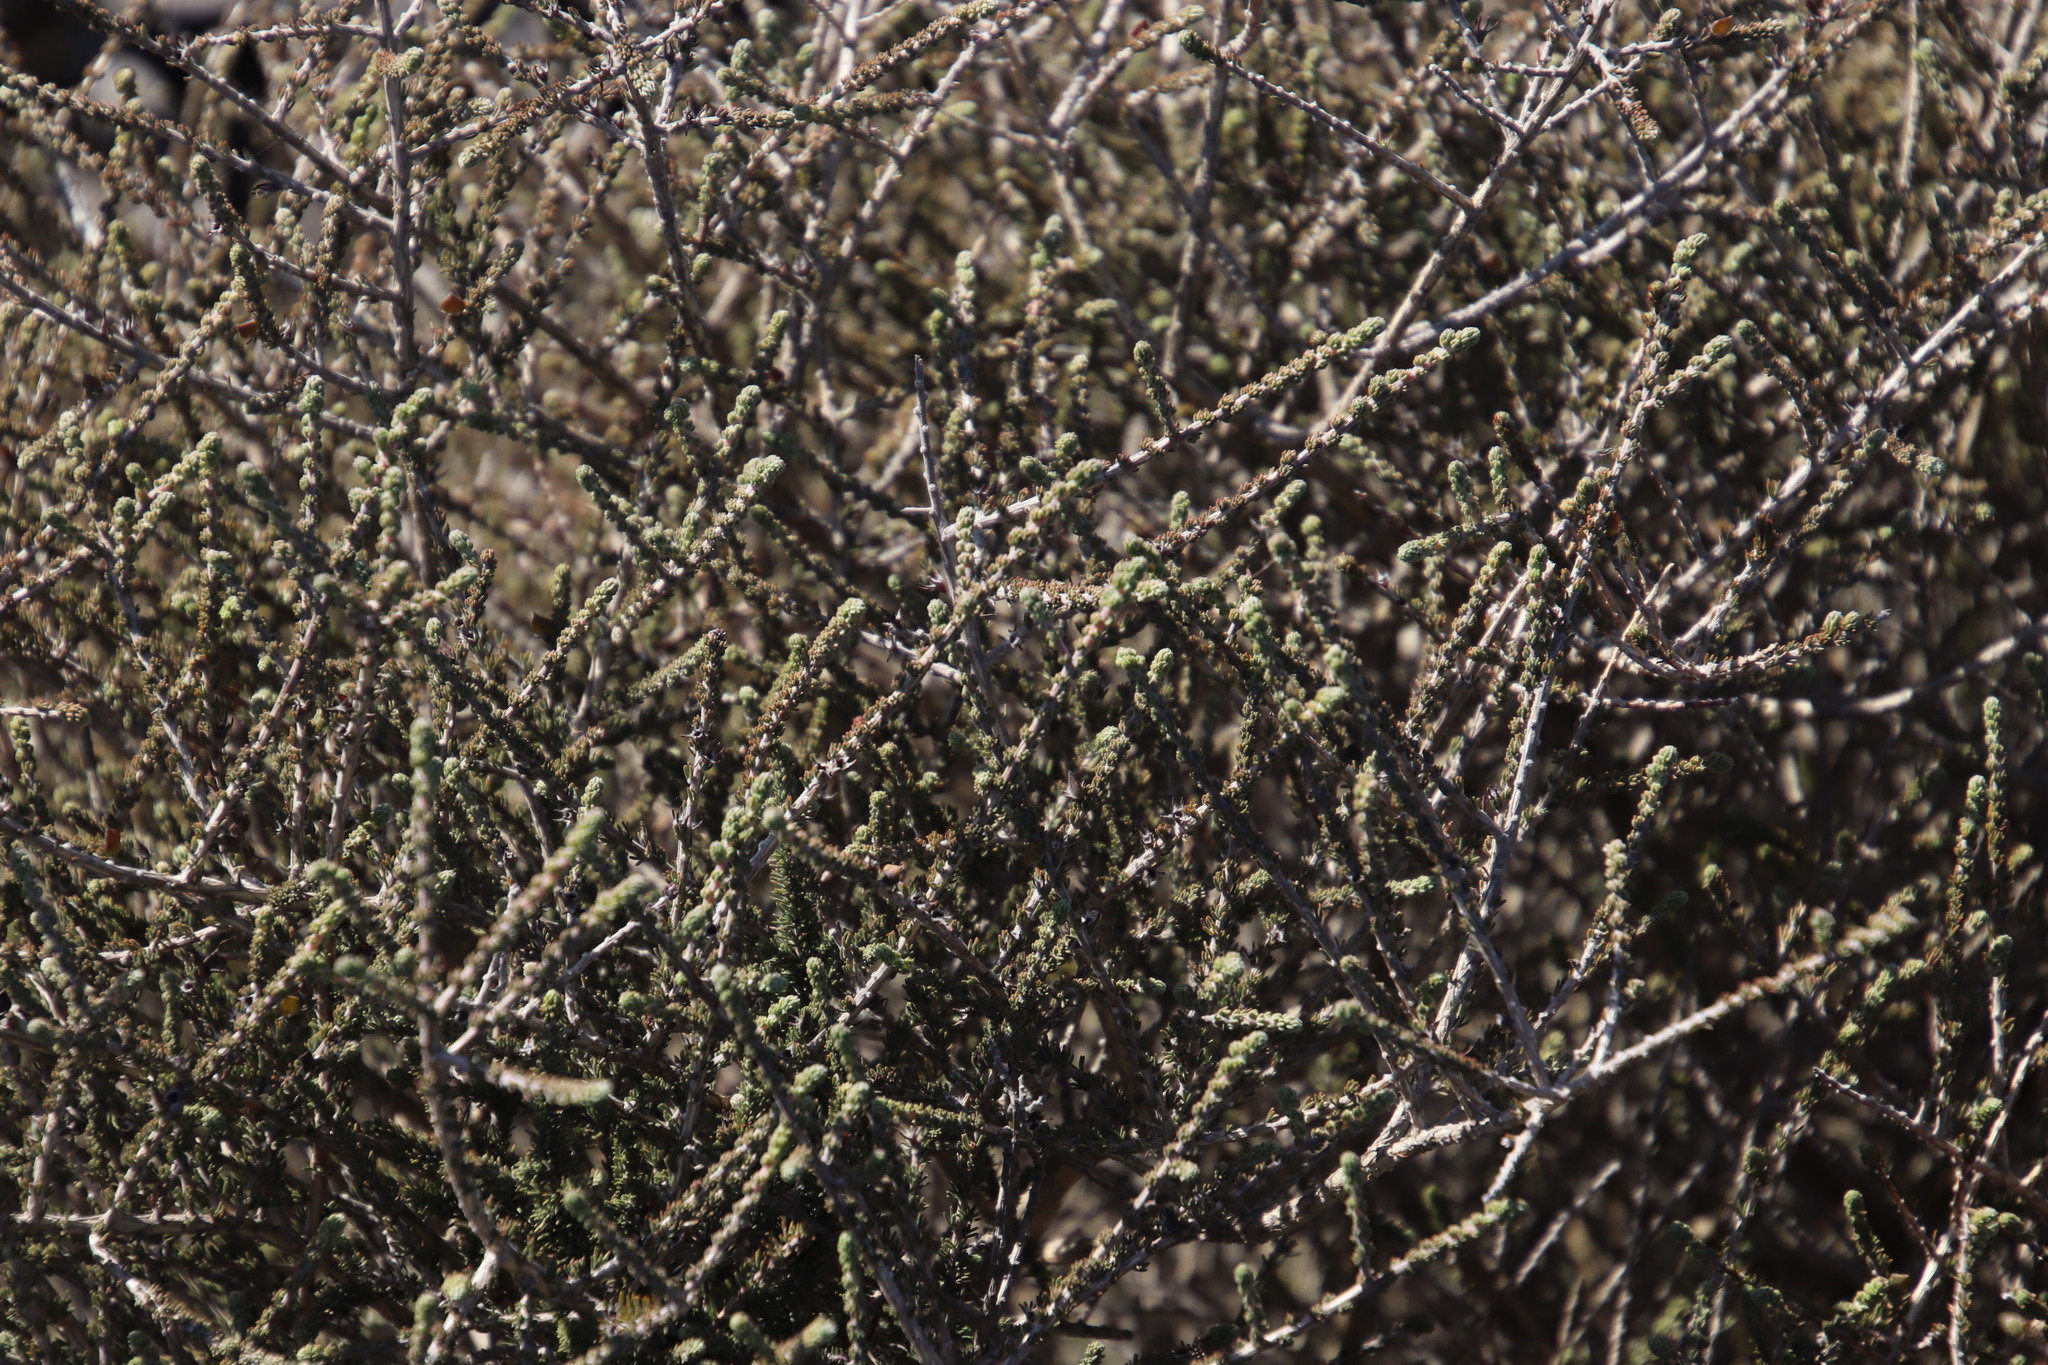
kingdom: Plantae
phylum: Tracheophyta
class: Magnoliopsida
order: Fabales
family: Fabaceae
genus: Aspalathus
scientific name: Aspalathus hispida
